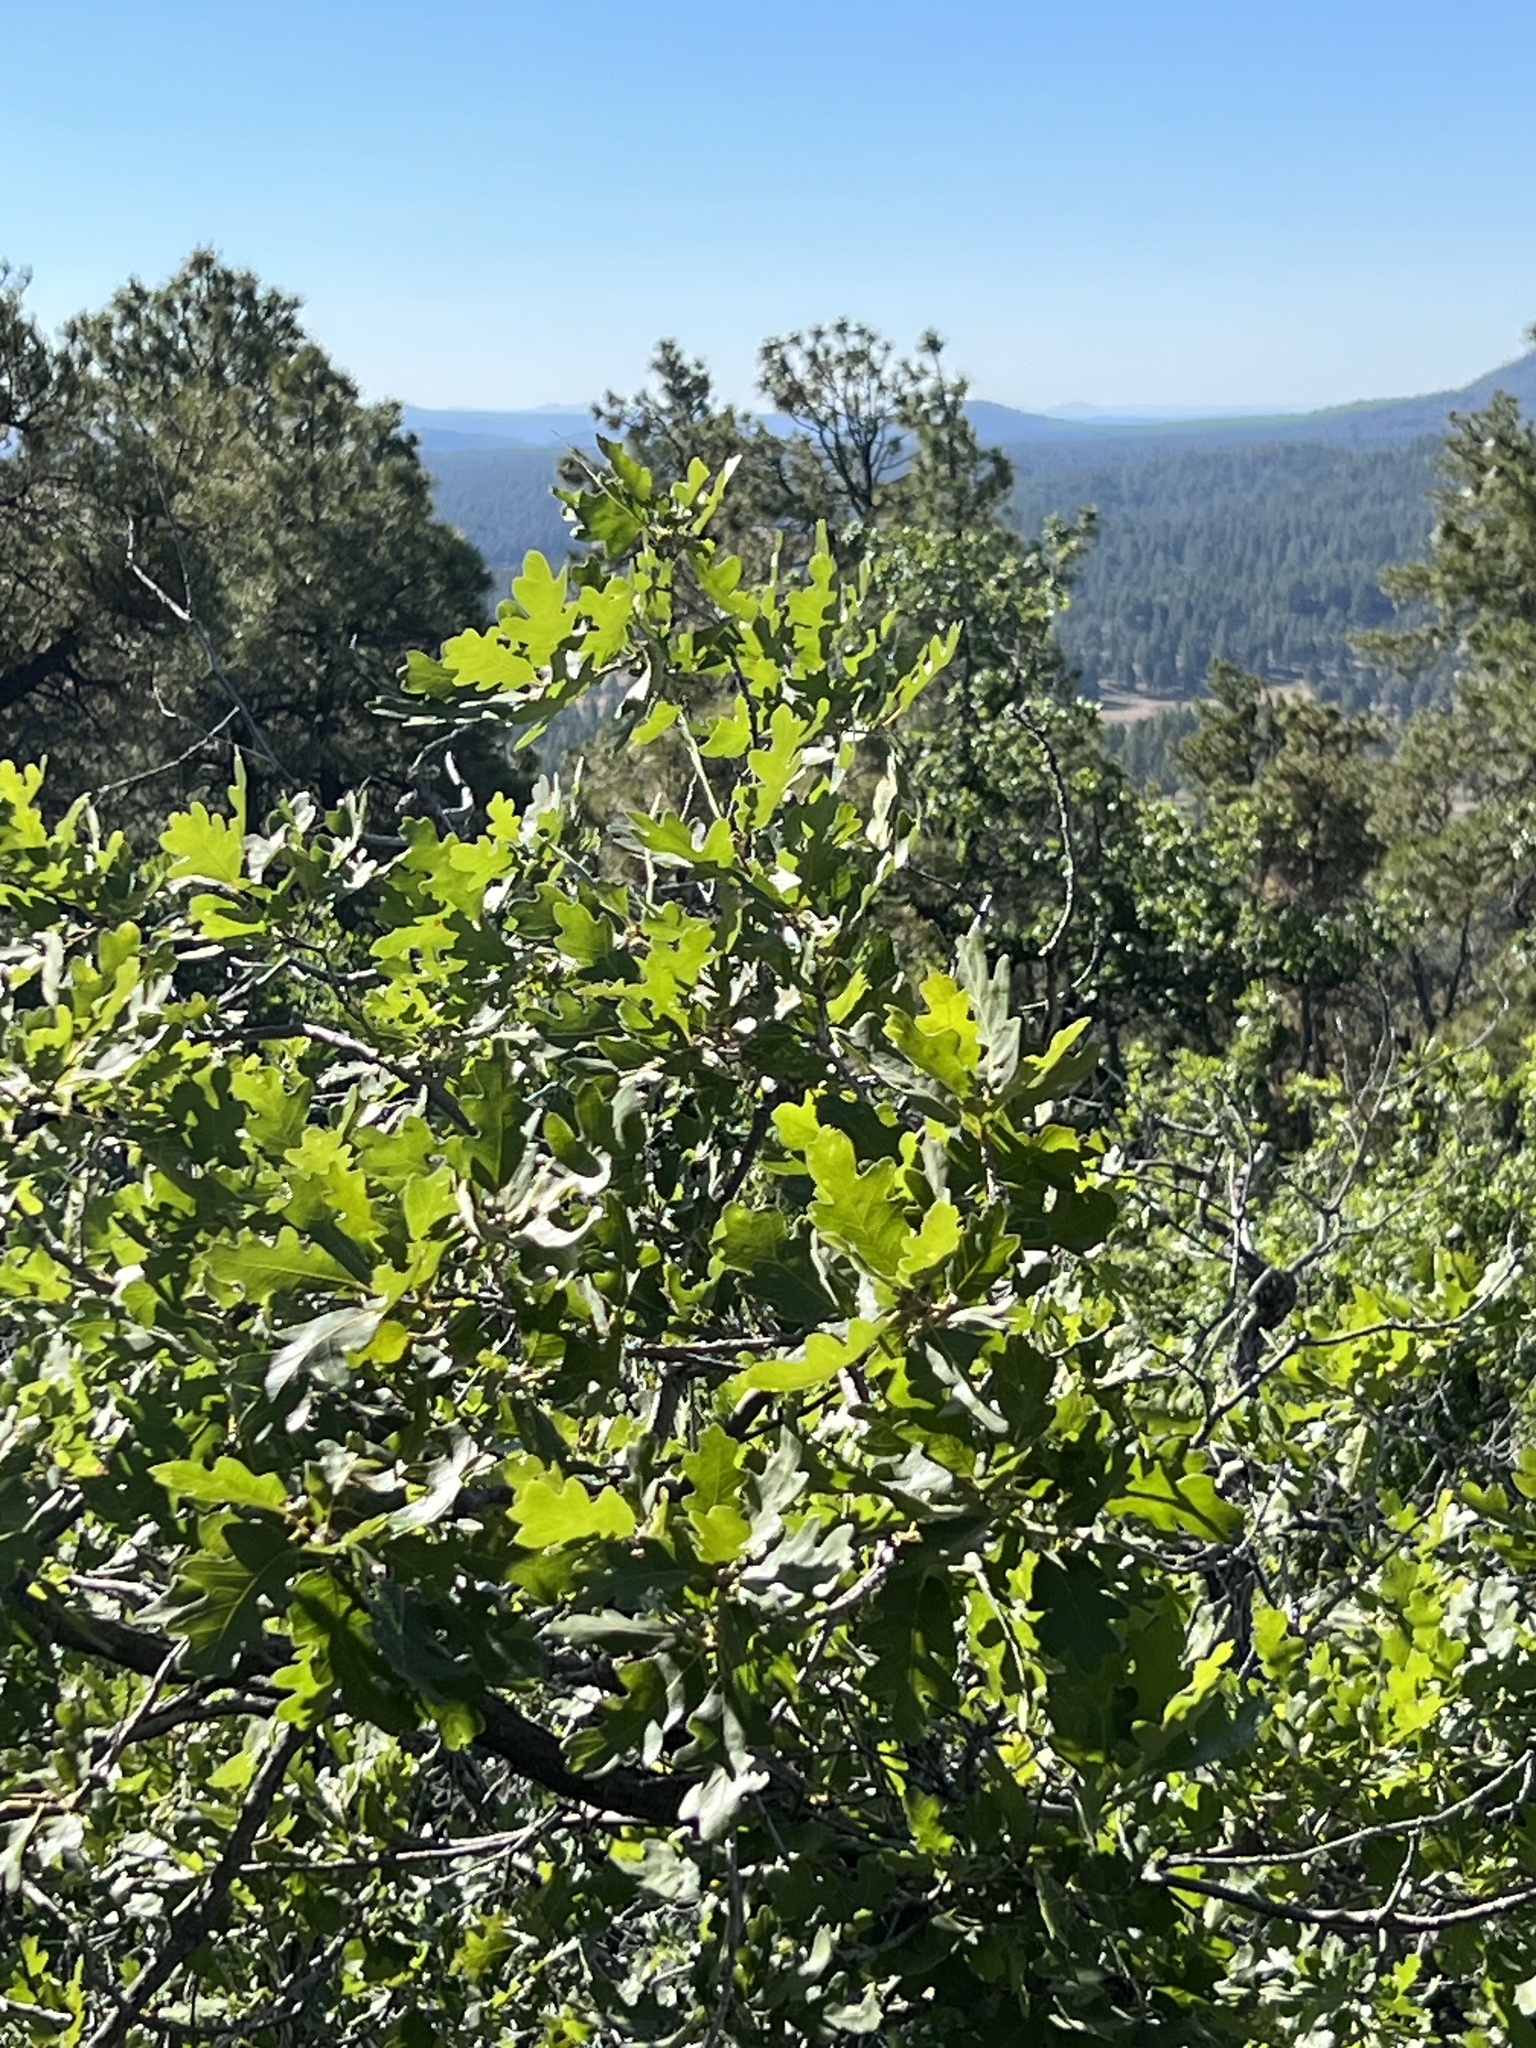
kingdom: Plantae
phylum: Tracheophyta
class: Magnoliopsida
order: Fagales
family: Fagaceae
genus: Quercus
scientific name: Quercus gambelii
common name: Gambel oak
